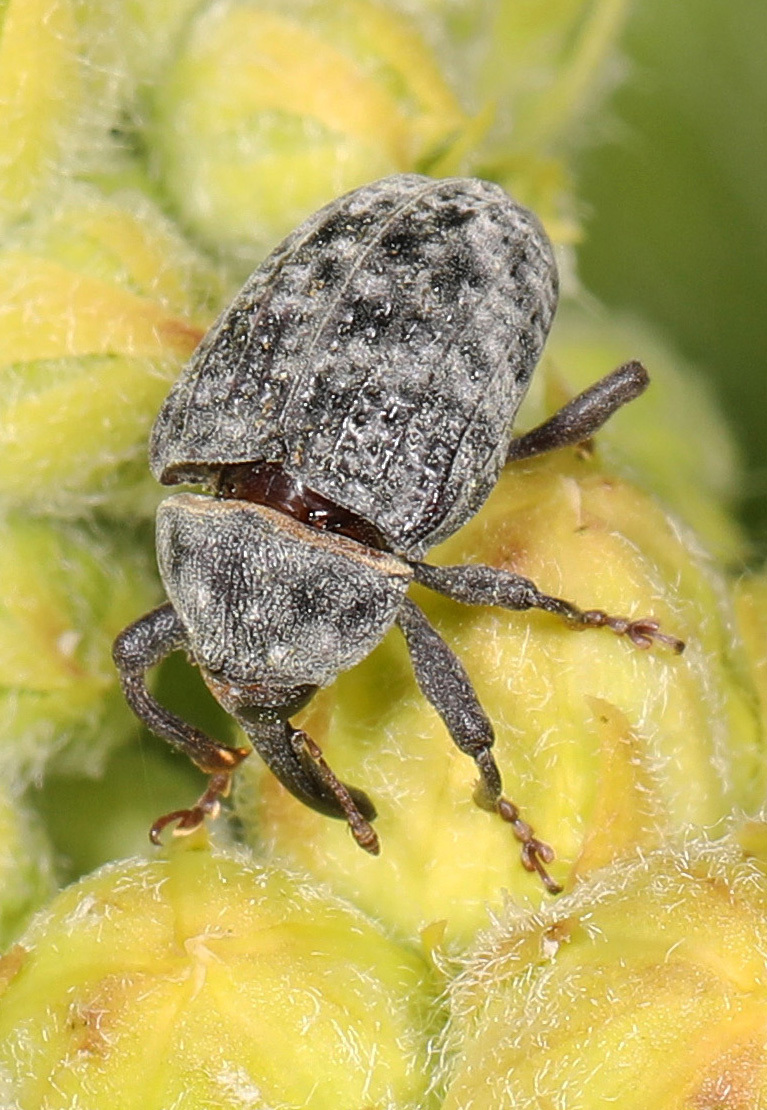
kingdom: Animalia
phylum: Arthropoda
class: Insecta
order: Coleoptera
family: Curculionidae
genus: Rhyssomatus
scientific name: Rhyssomatus lineaticollis
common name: Milkweed stem weevil
